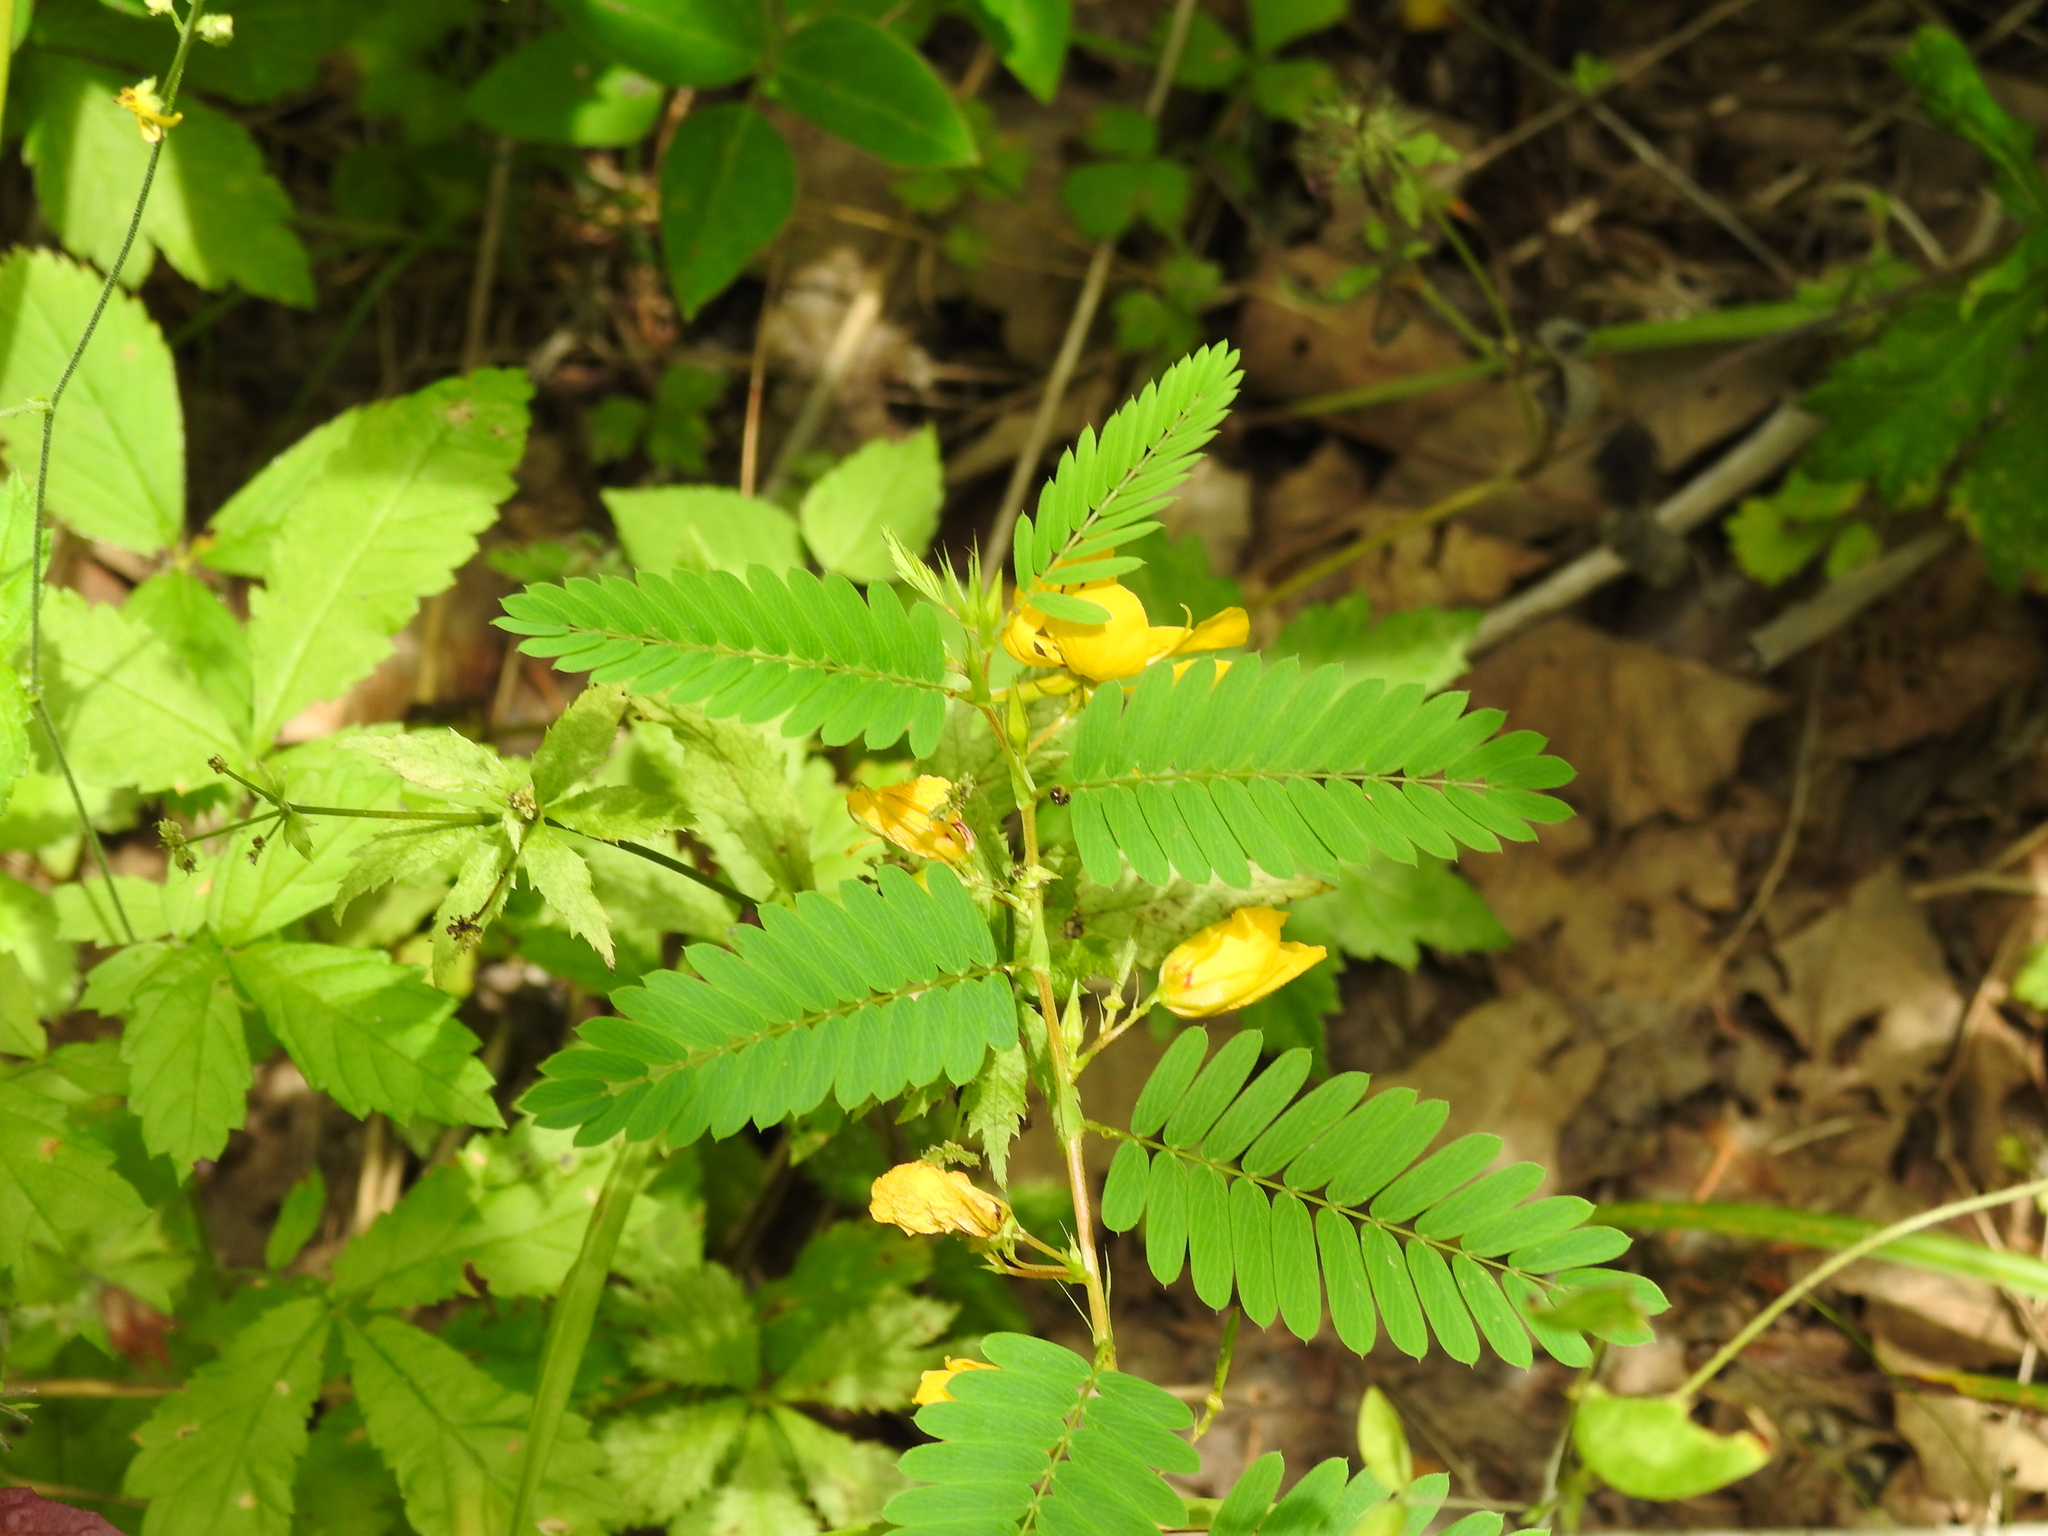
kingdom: Plantae
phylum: Tracheophyta
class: Magnoliopsida
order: Fabales
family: Fabaceae
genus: Chamaecrista
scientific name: Chamaecrista fasciculata
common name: Golden cassia
